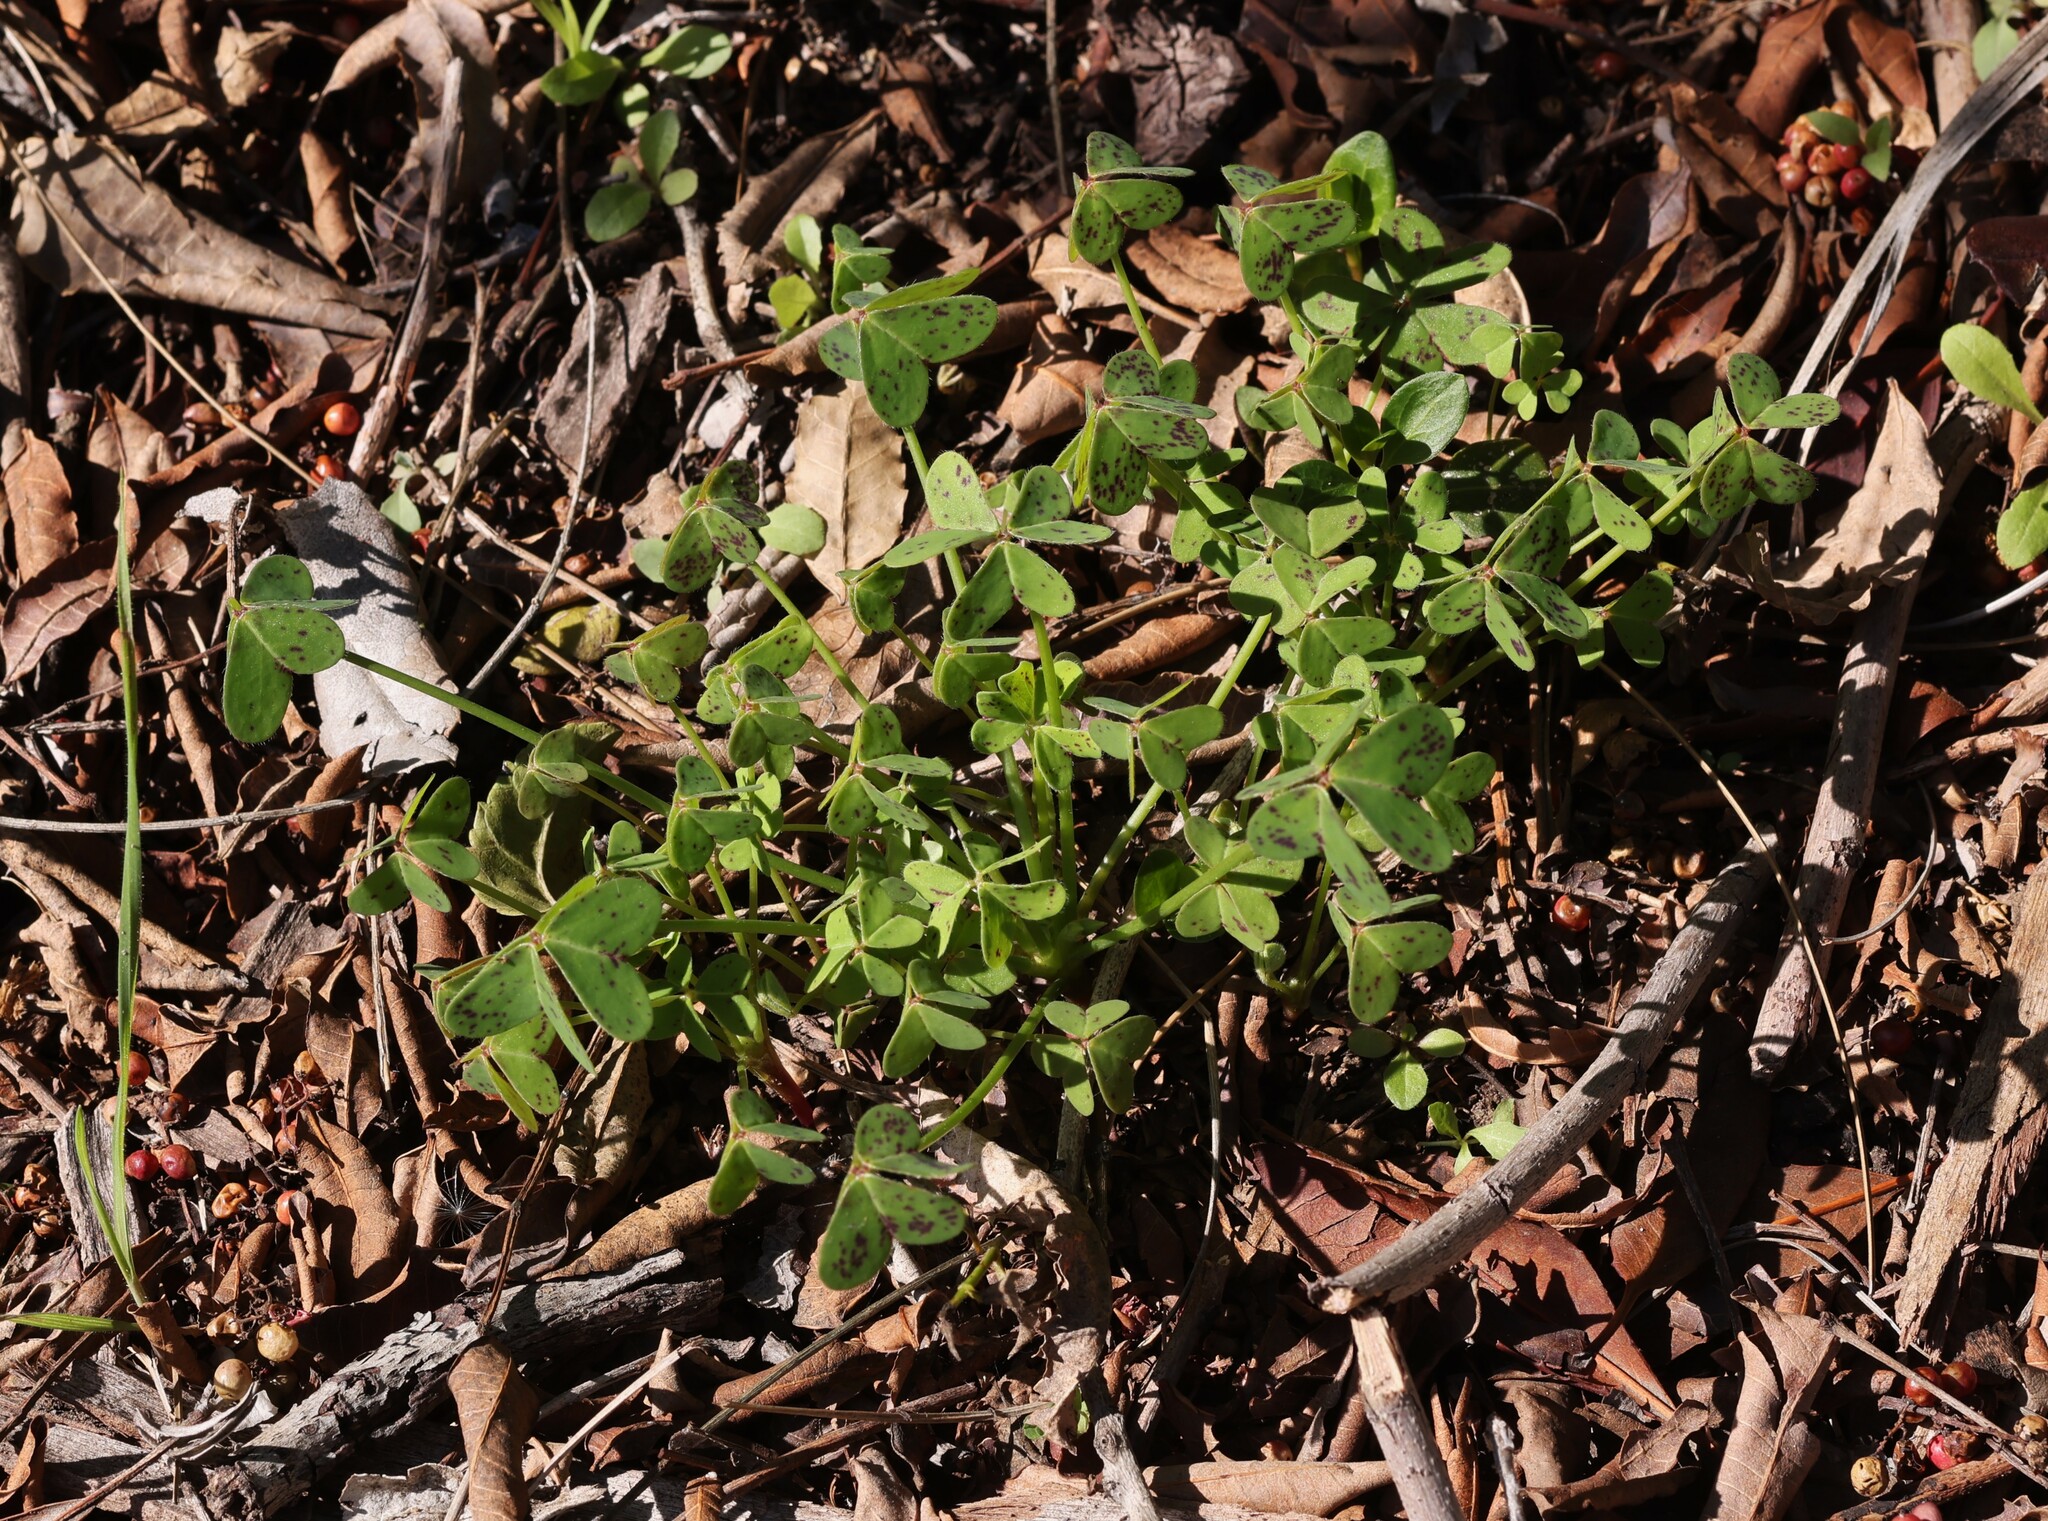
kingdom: Plantae
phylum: Tracheophyta
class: Magnoliopsida
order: Oxalidales
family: Oxalidaceae
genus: Oxalis
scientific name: Oxalis pes-caprae
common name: Bermuda-buttercup
